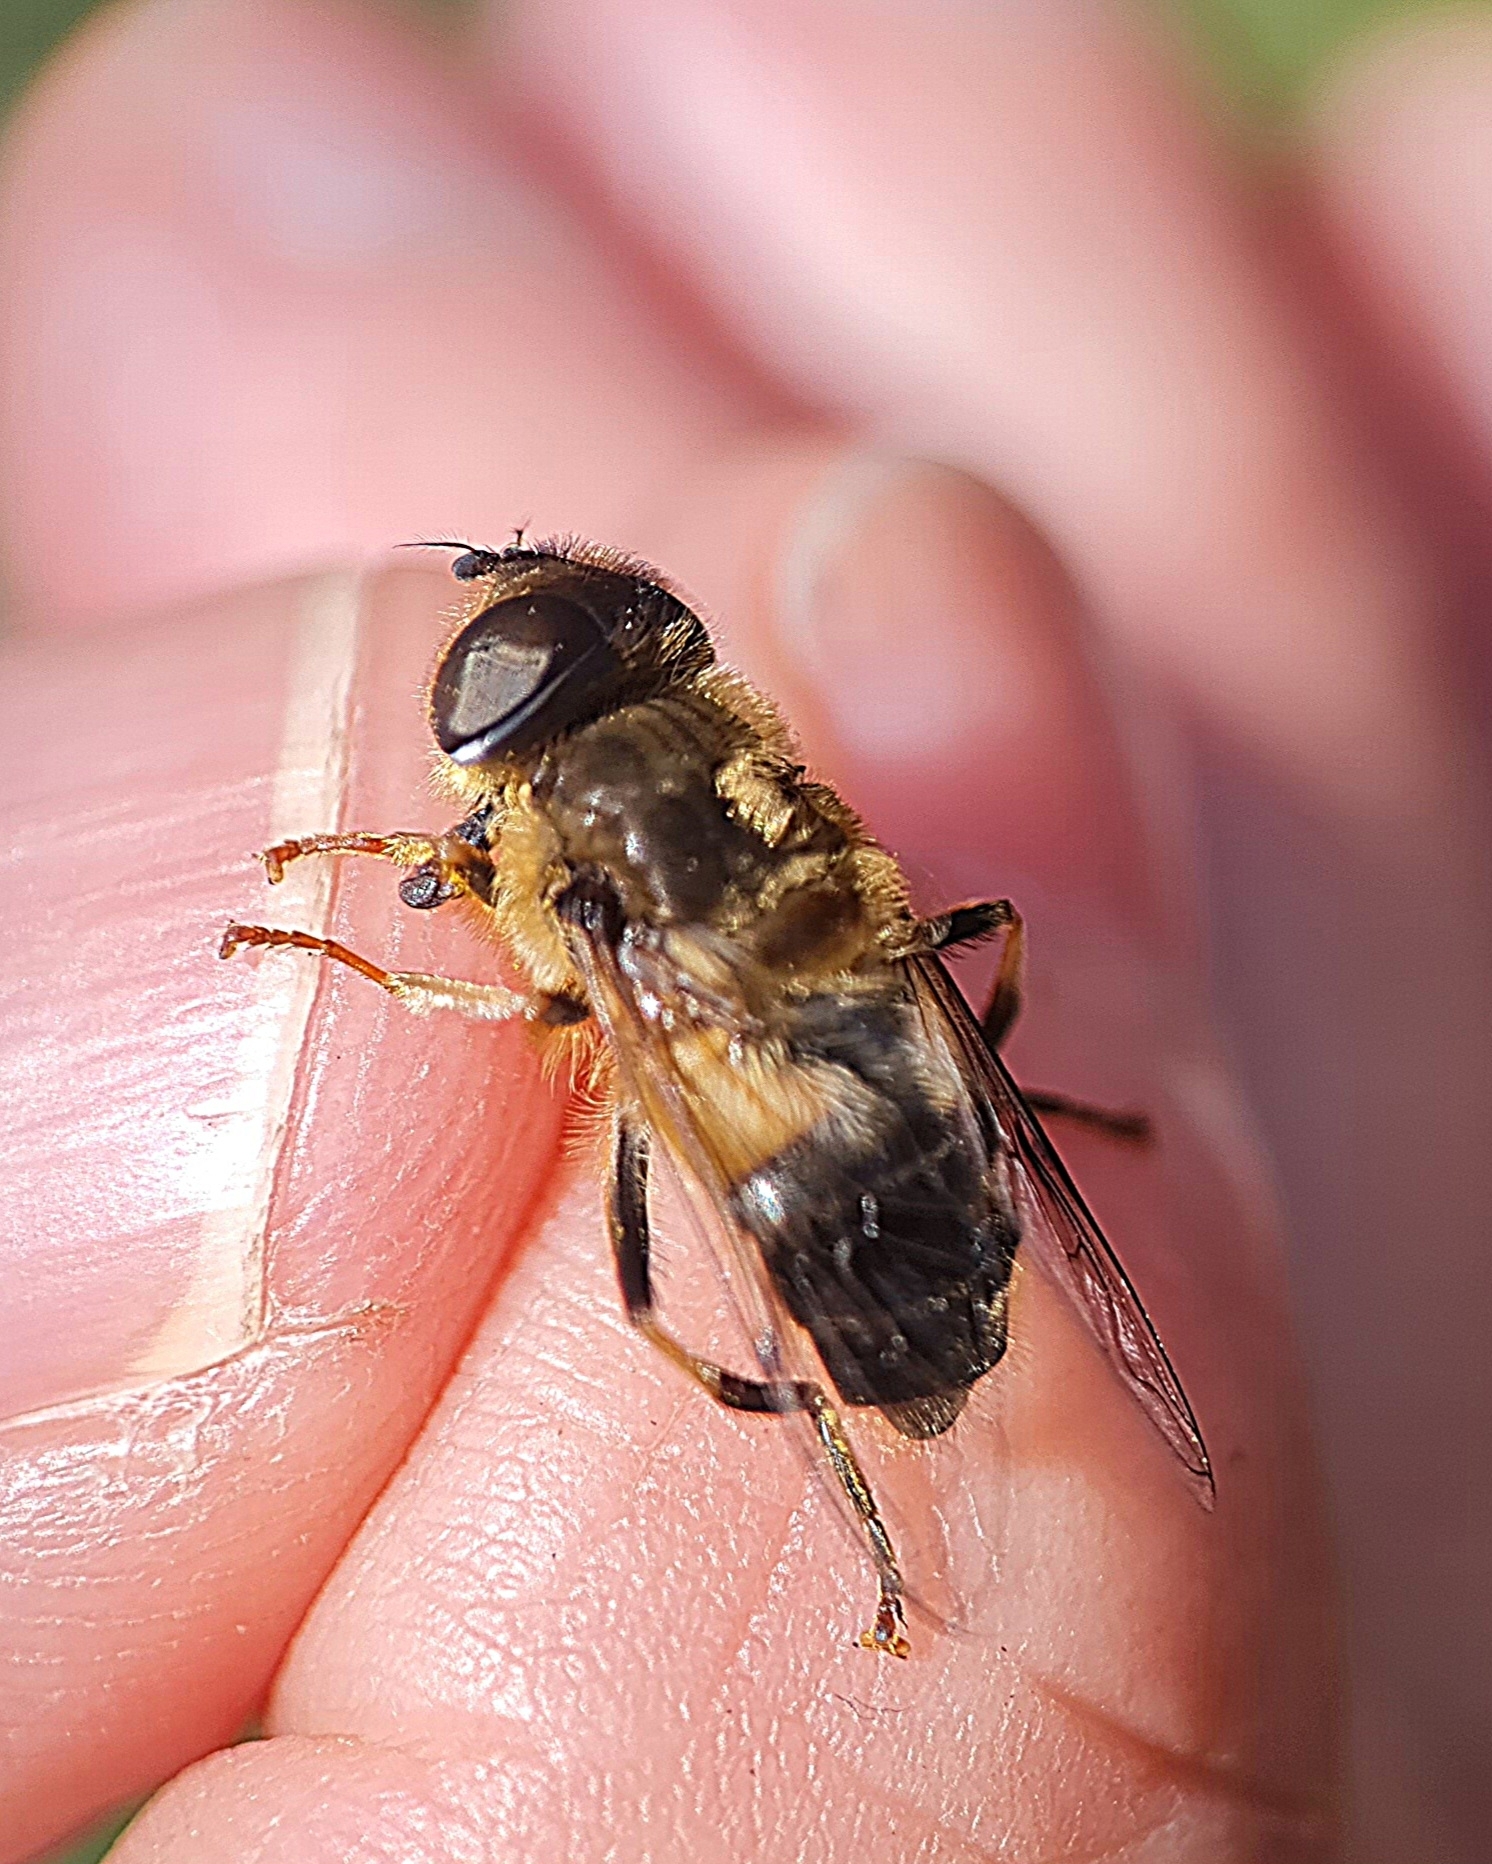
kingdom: Animalia
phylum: Arthropoda
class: Insecta
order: Diptera
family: Syrphidae
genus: Eristalis
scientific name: Eristalis pertinax
